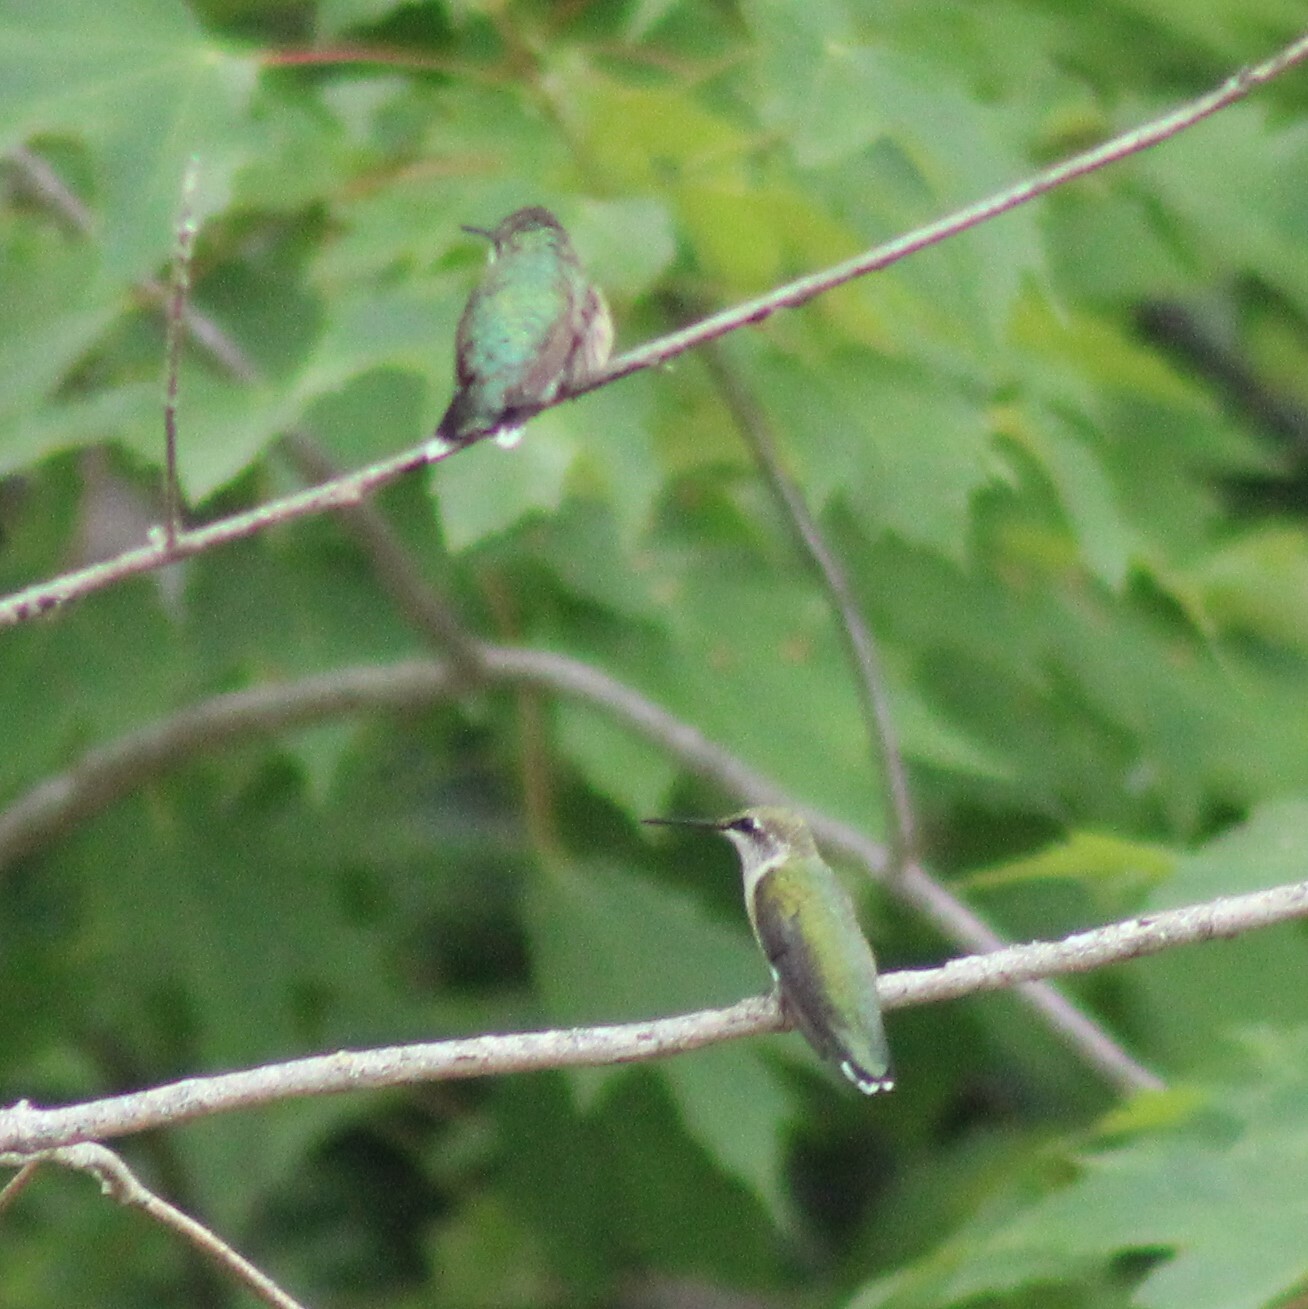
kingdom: Animalia
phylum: Chordata
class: Aves
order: Apodiformes
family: Trochilidae
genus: Archilochus
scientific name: Archilochus colubris
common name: Ruby-throated hummingbird
